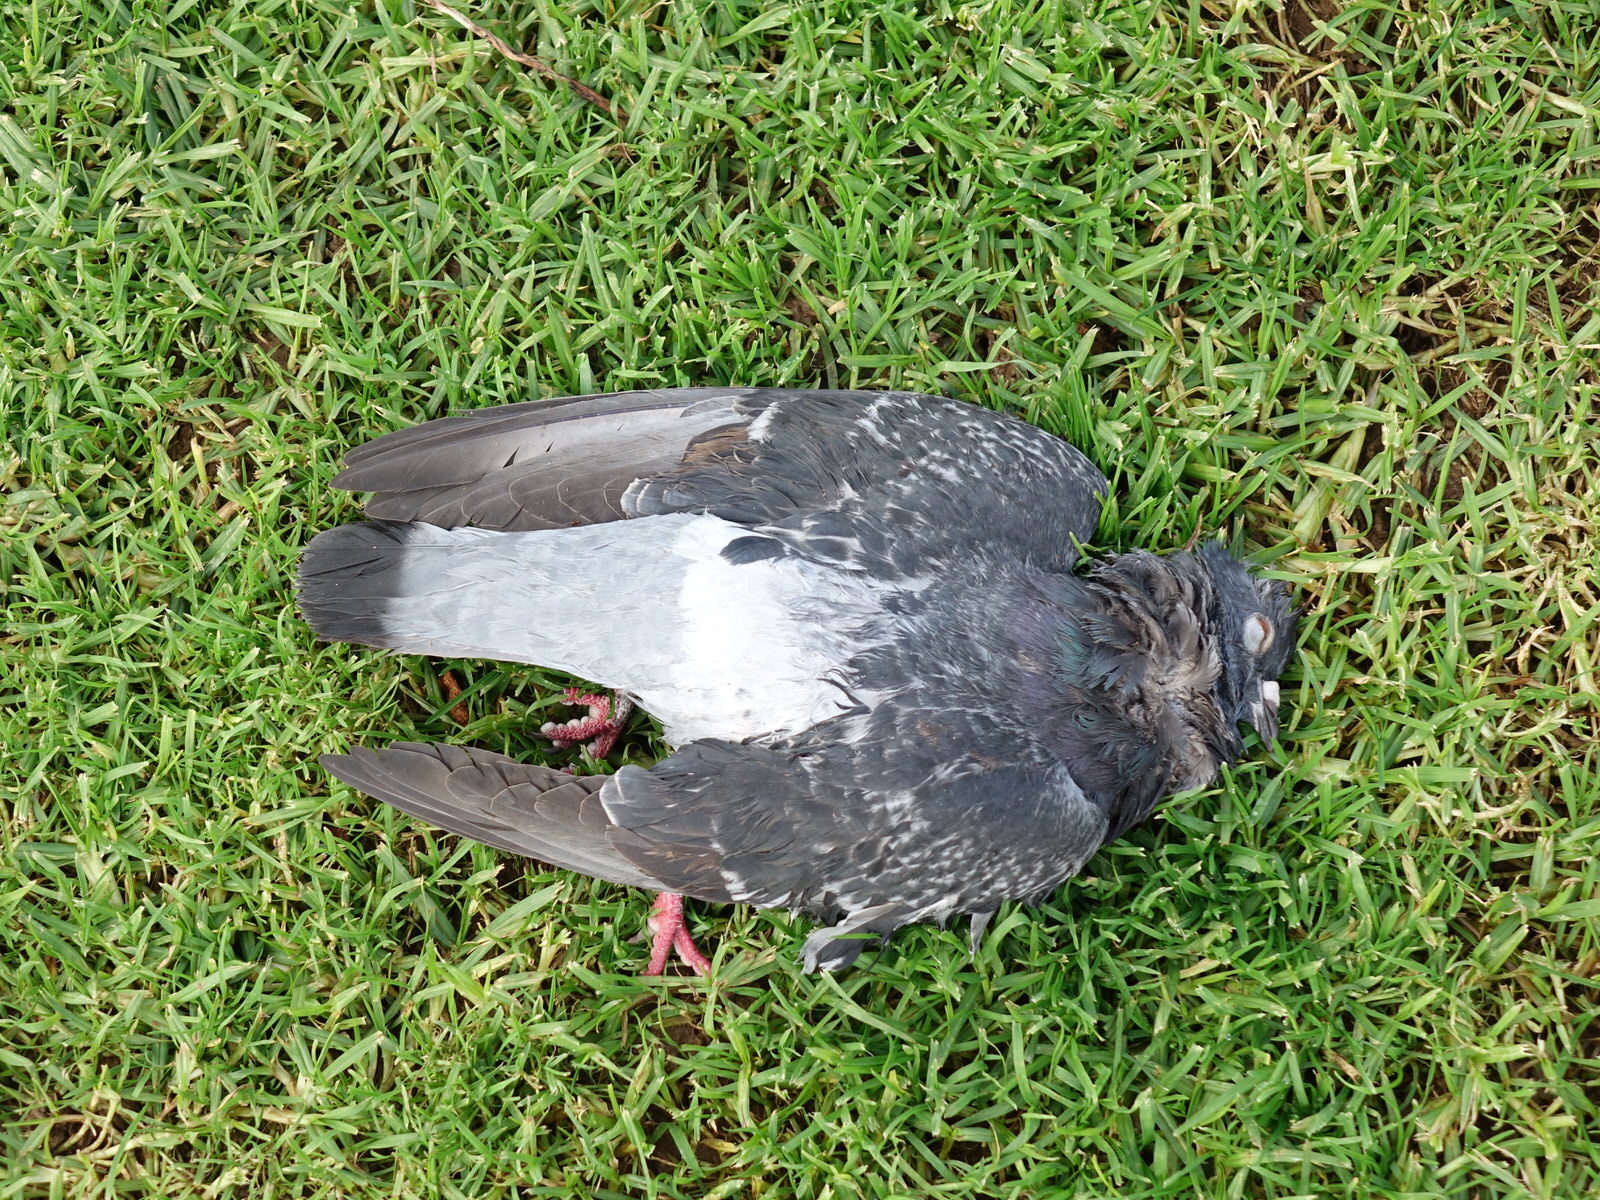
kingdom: Animalia
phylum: Chordata
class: Aves
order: Columbiformes
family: Columbidae
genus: Columba
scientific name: Columba livia
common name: Rock pigeon
